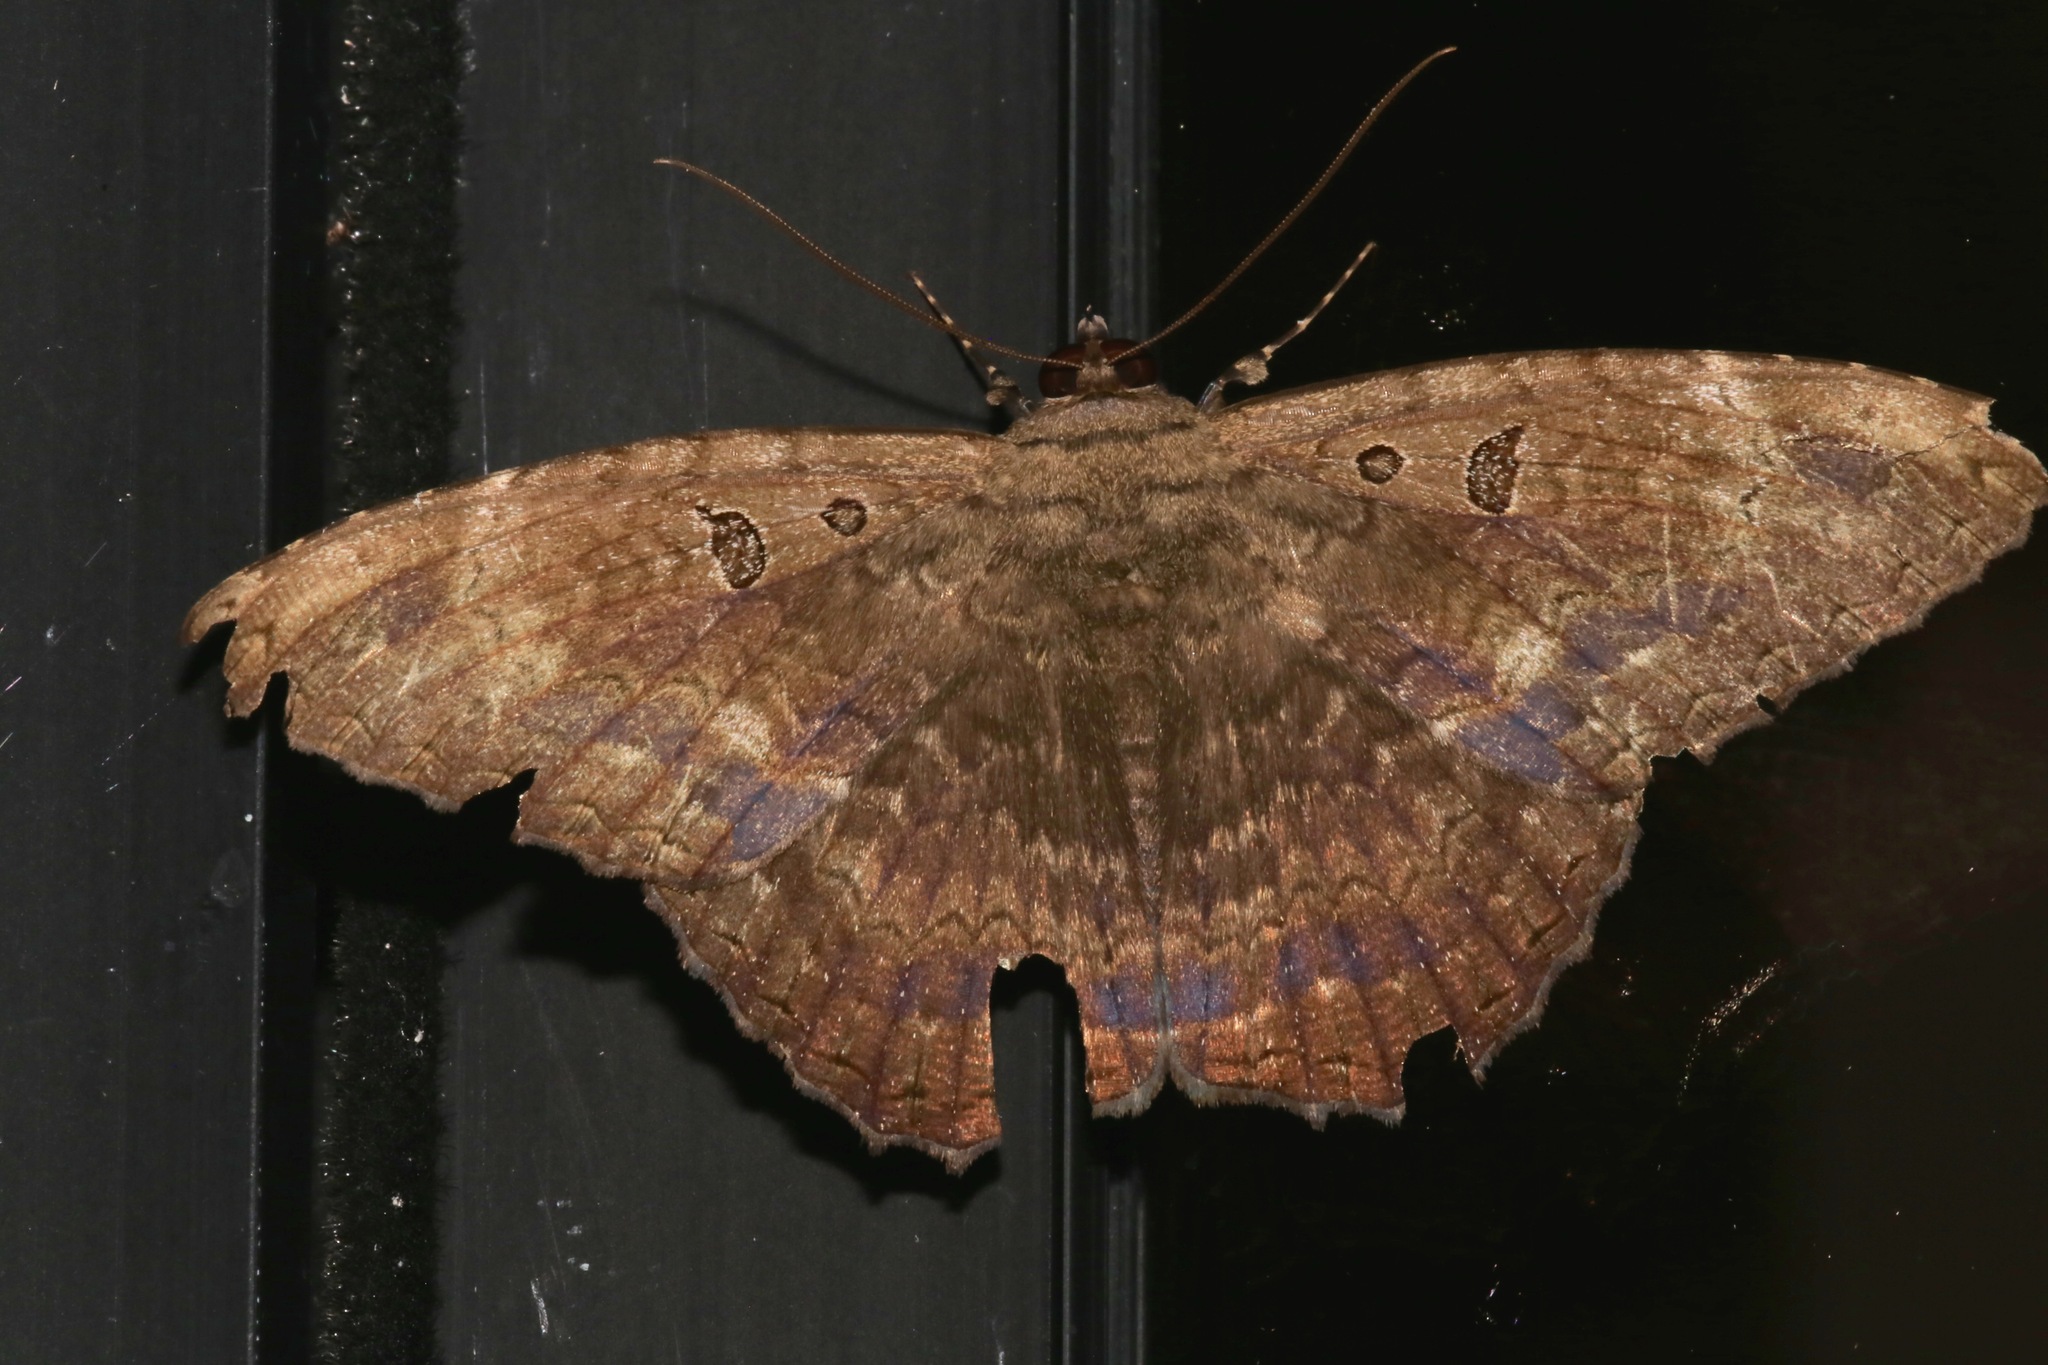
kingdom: Animalia
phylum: Arthropoda
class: Insecta
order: Lepidoptera
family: Erebidae
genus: Feigeria
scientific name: Feigeria magna
